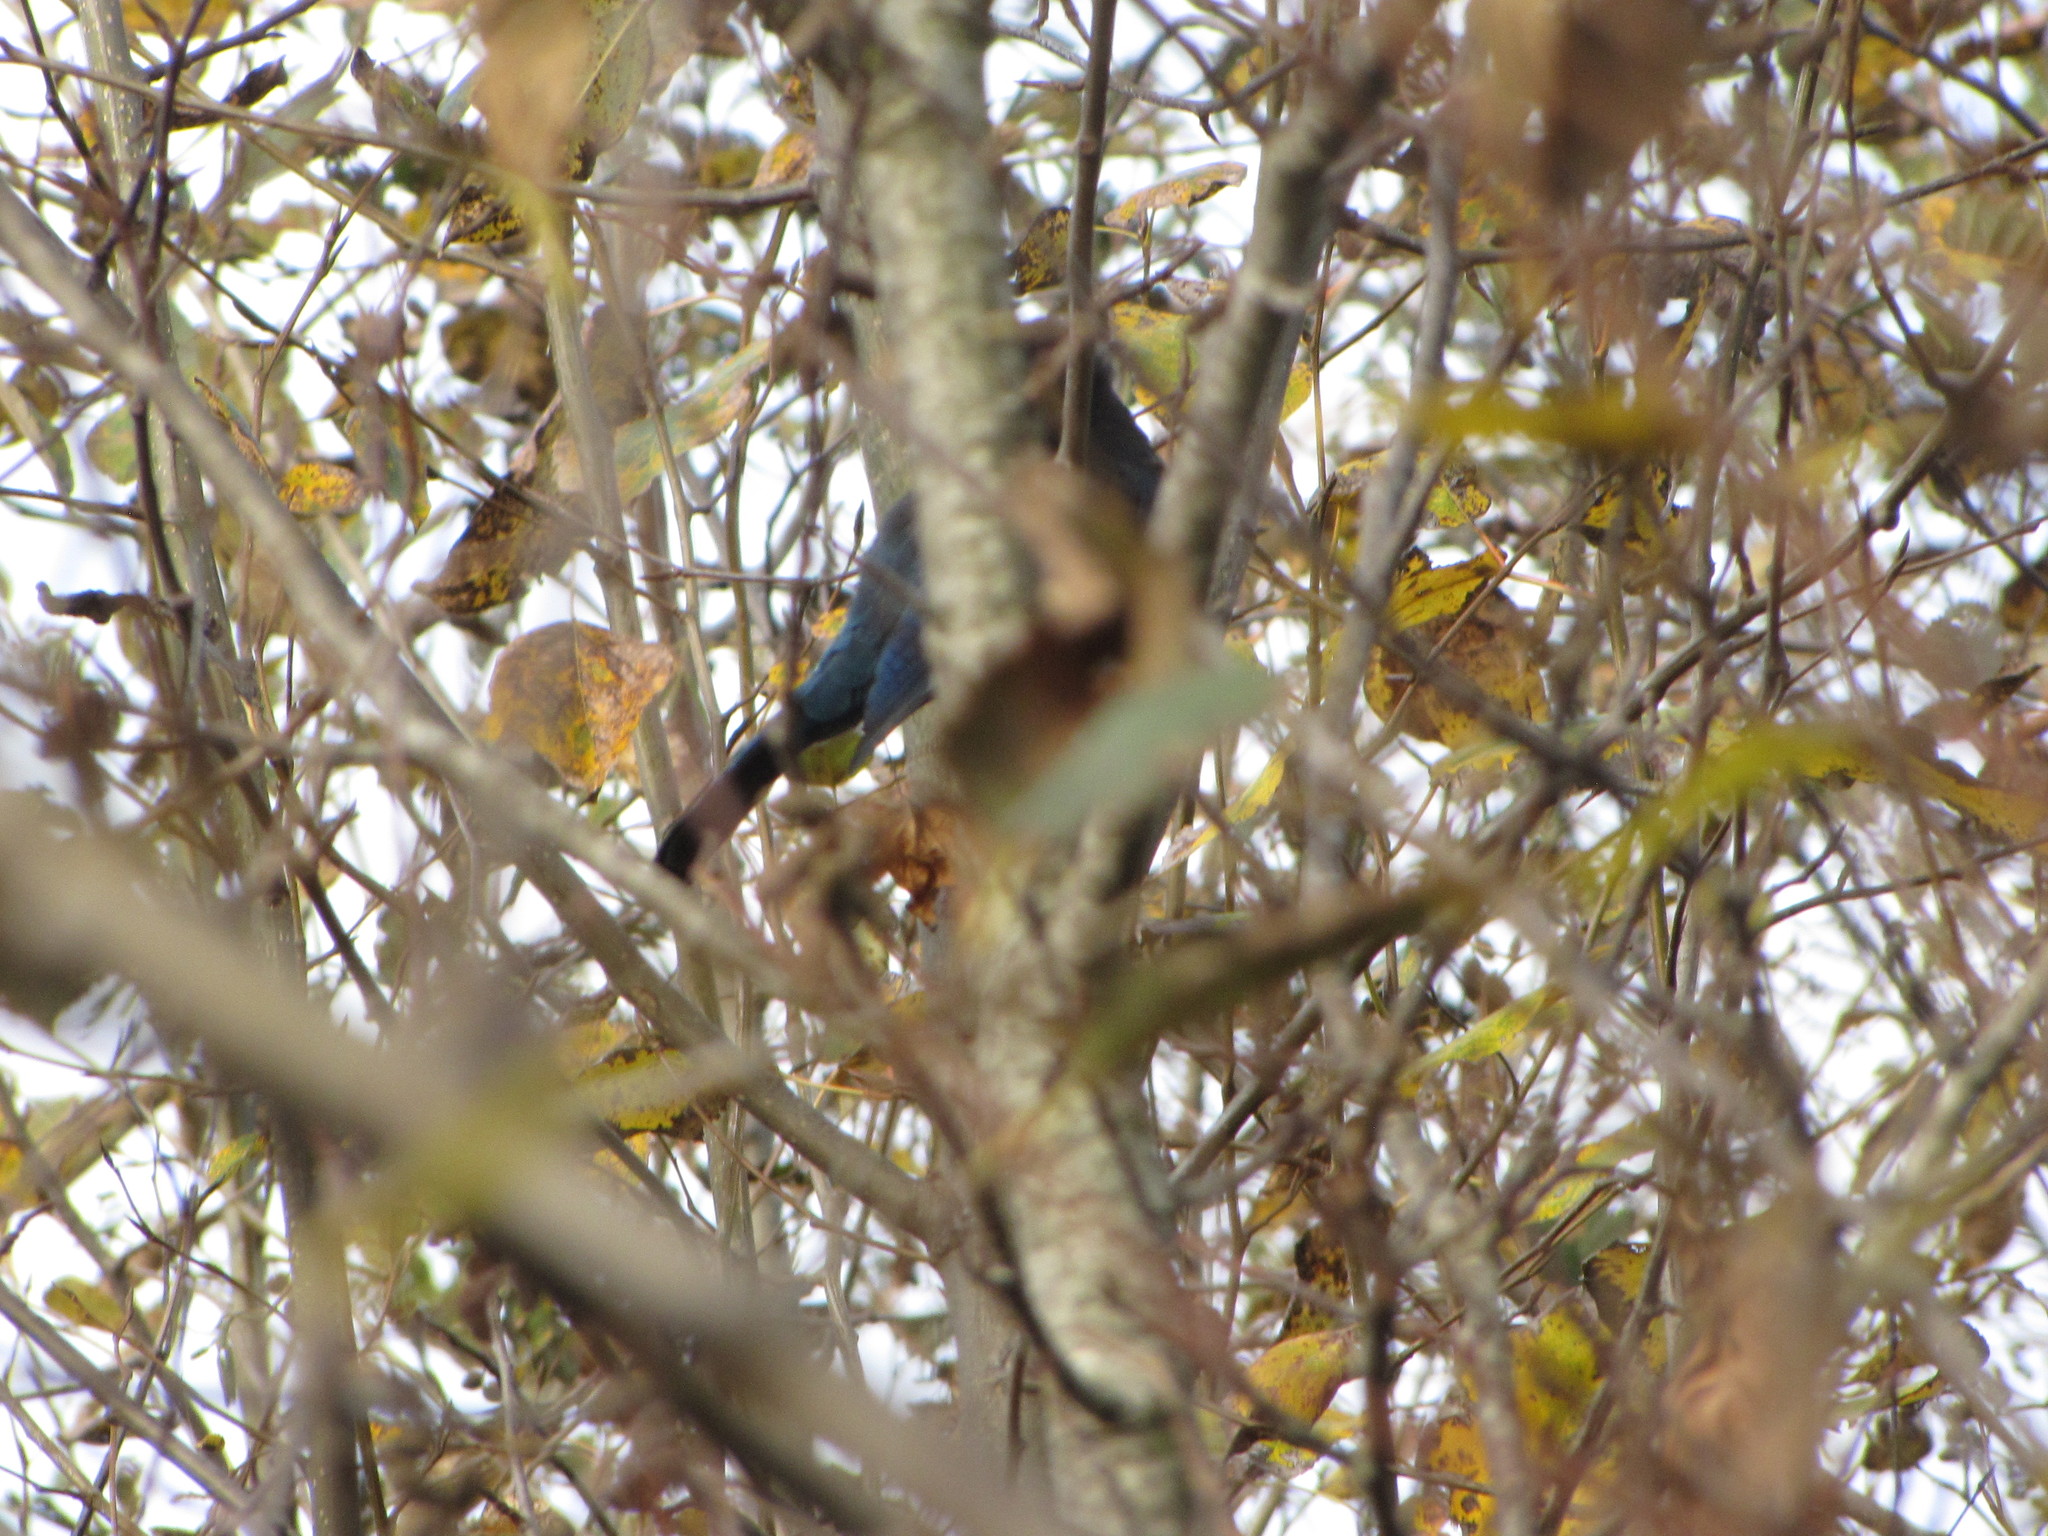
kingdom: Animalia
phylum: Chordata
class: Aves
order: Passeriformes
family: Corvidae
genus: Cyanocitta
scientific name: Cyanocitta stelleri
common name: Steller's jay
